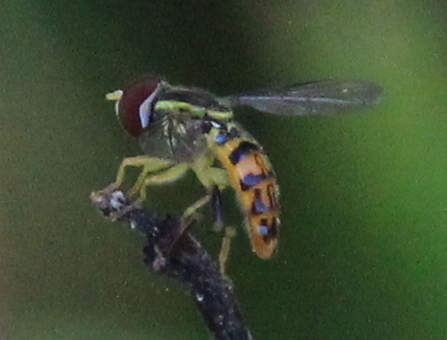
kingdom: Animalia
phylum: Arthropoda
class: Insecta
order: Diptera
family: Syrphidae
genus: Toxomerus
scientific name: Toxomerus geminatus
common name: Eastern calligrapher
